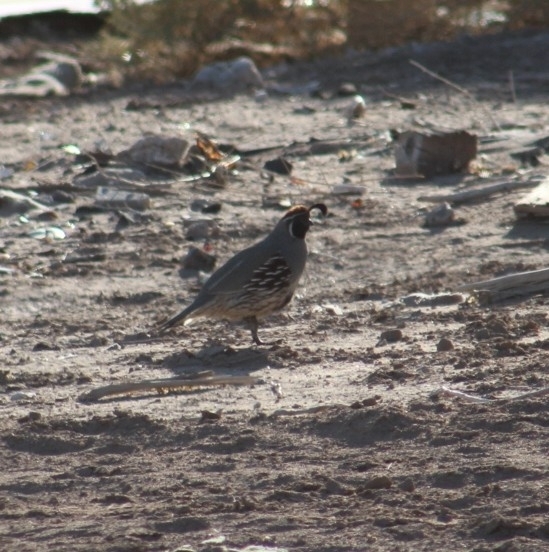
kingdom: Animalia
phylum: Chordata
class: Aves
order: Galliformes
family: Odontophoridae
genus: Callipepla
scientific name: Callipepla gambelii
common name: Gambel's quail
